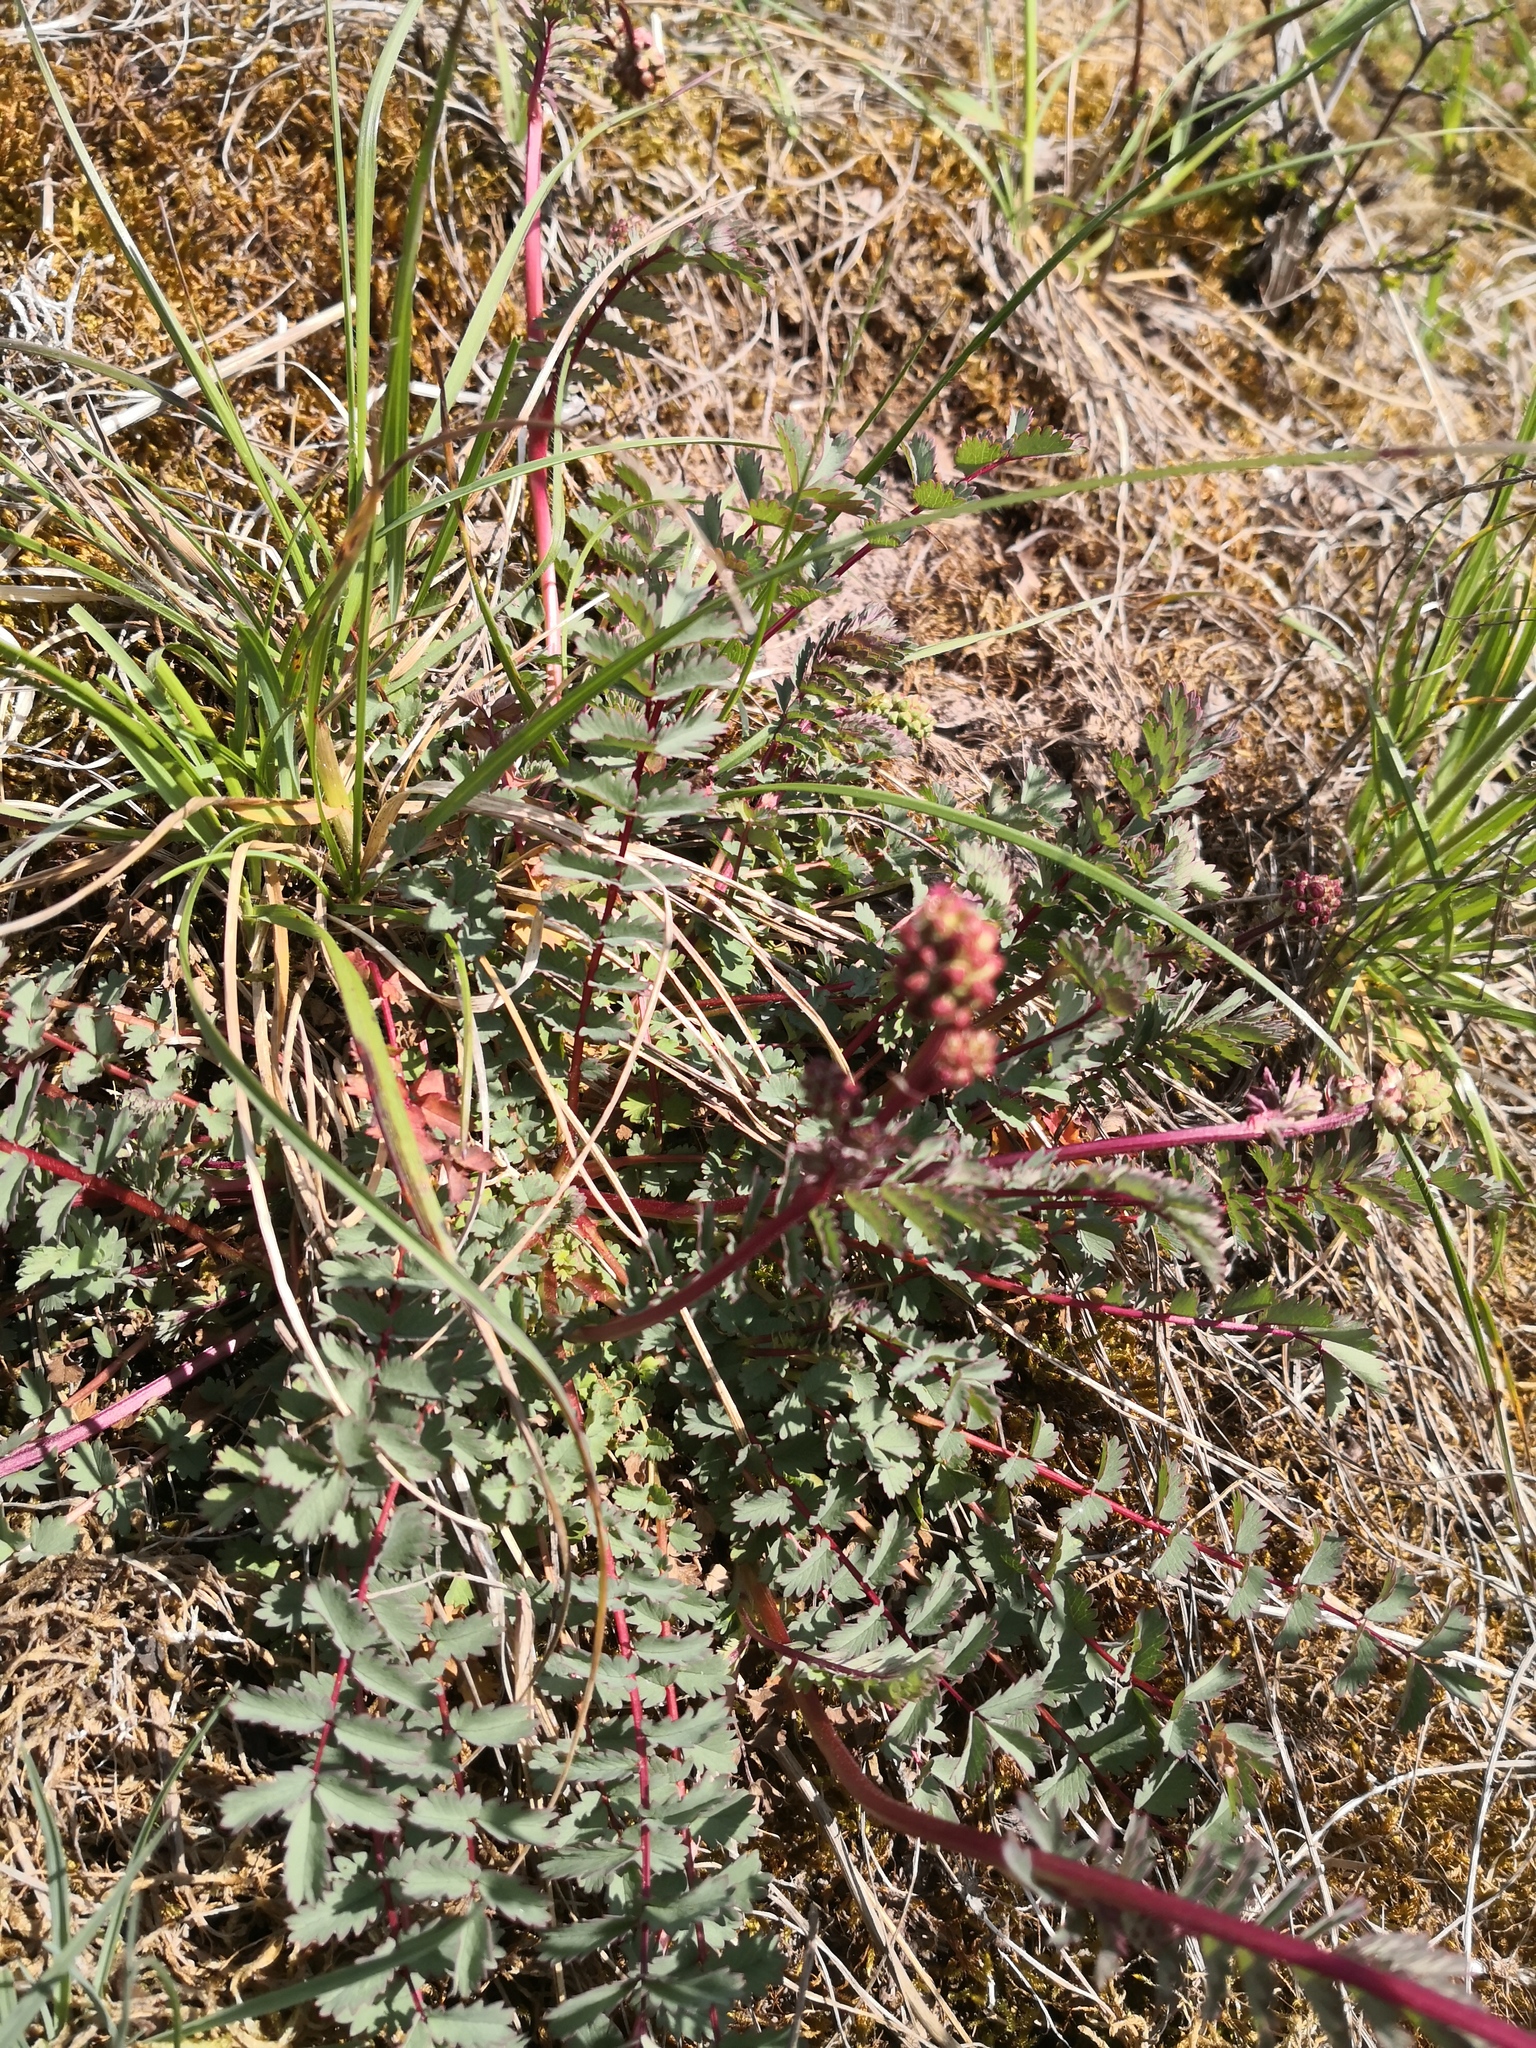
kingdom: Plantae
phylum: Tracheophyta
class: Magnoliopsida
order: Rosales
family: Rosaceae
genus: Poterium
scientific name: Poterium sanguisorba
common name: Salad burnet
